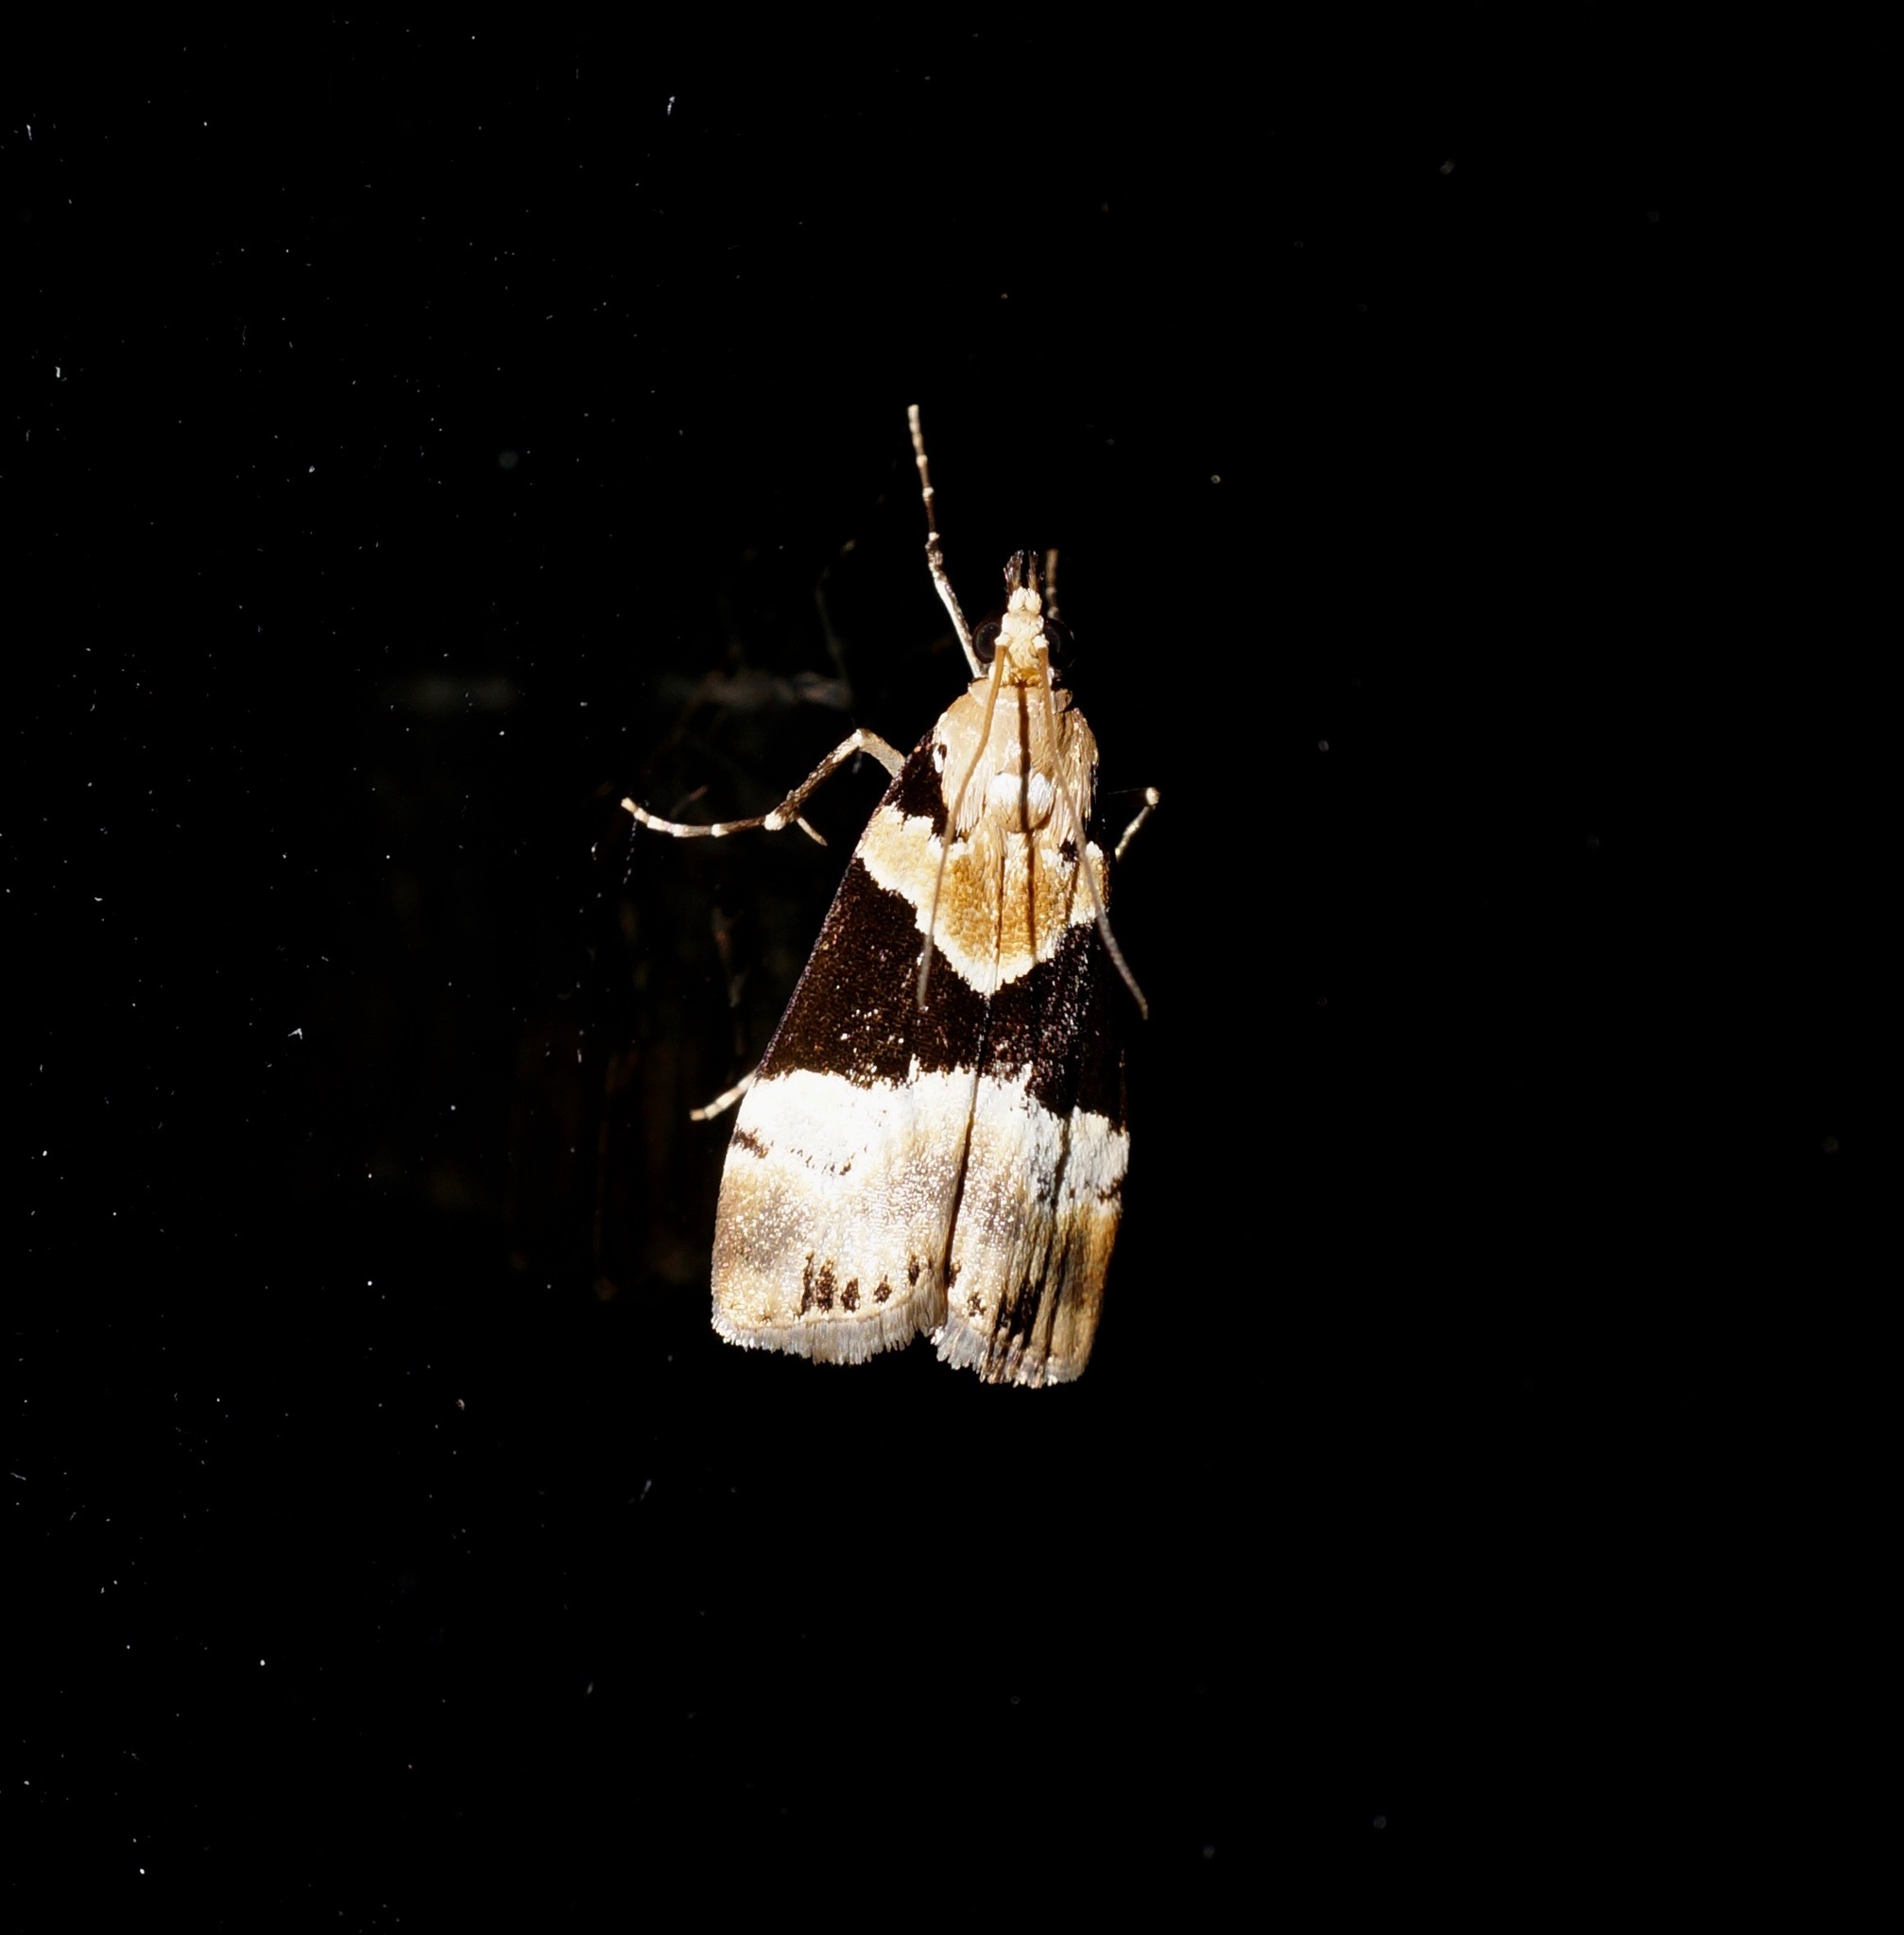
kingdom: Animalia
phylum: Arthropoda
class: Insecta
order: Lepidoptera
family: Crambidae
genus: Eudonia
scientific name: Eudonia aspidota
